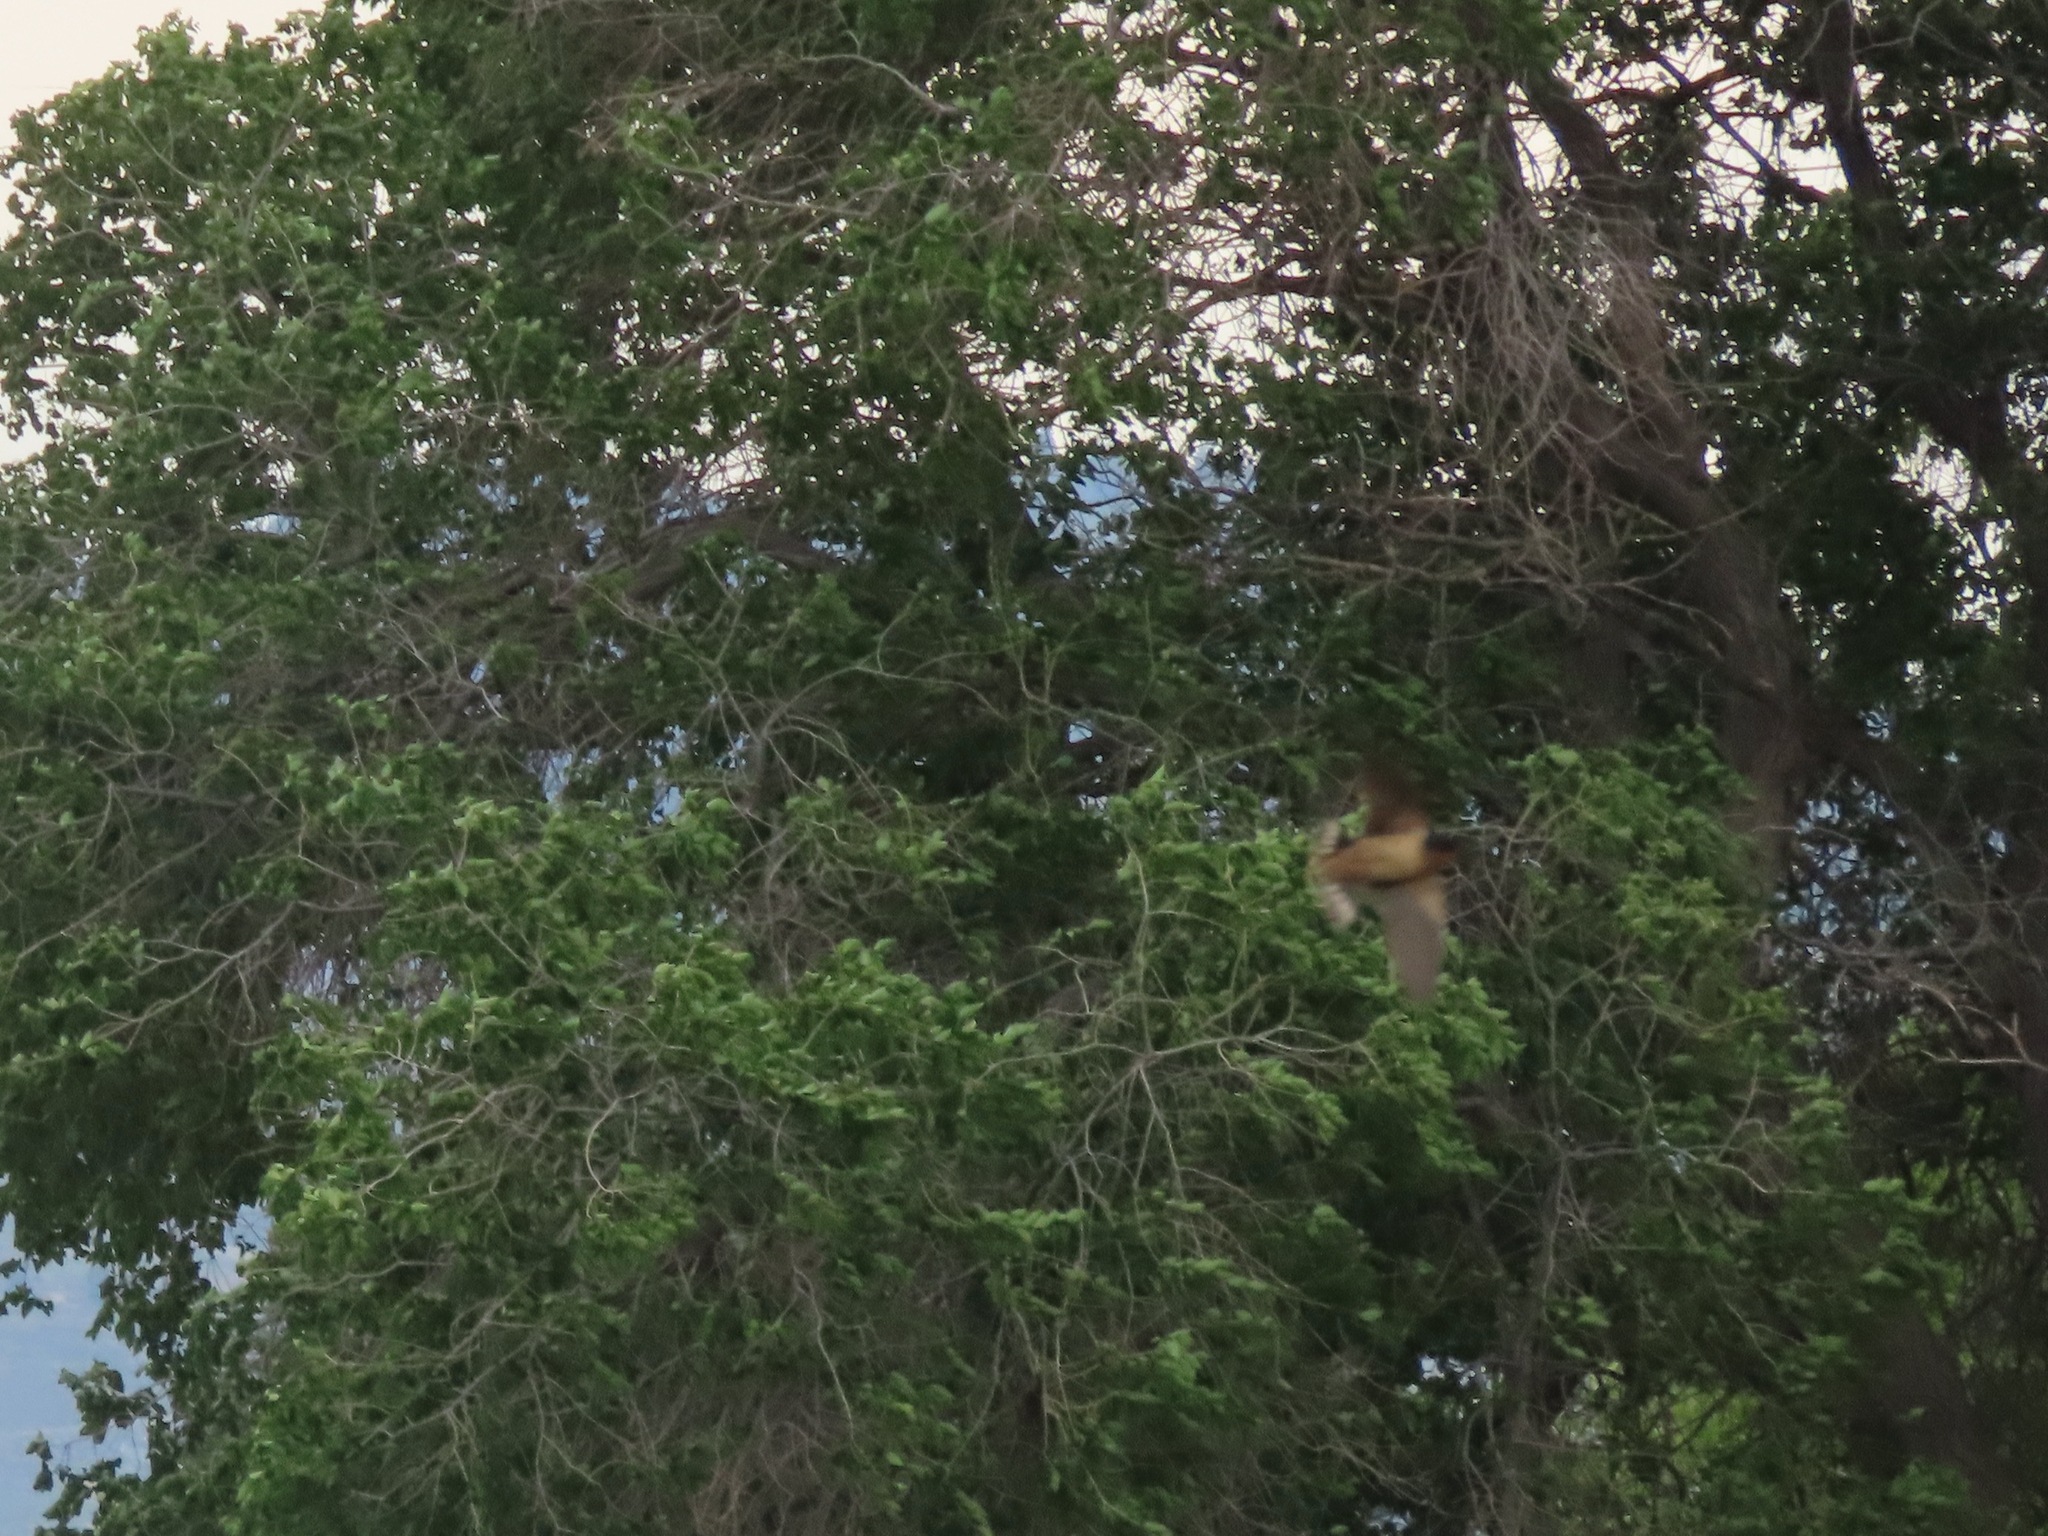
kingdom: Animalia
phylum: Chordata
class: Aves
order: Passeriformes
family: Hirundinidae
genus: Hirundo
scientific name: Hirundo rustica
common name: Barn swallow
